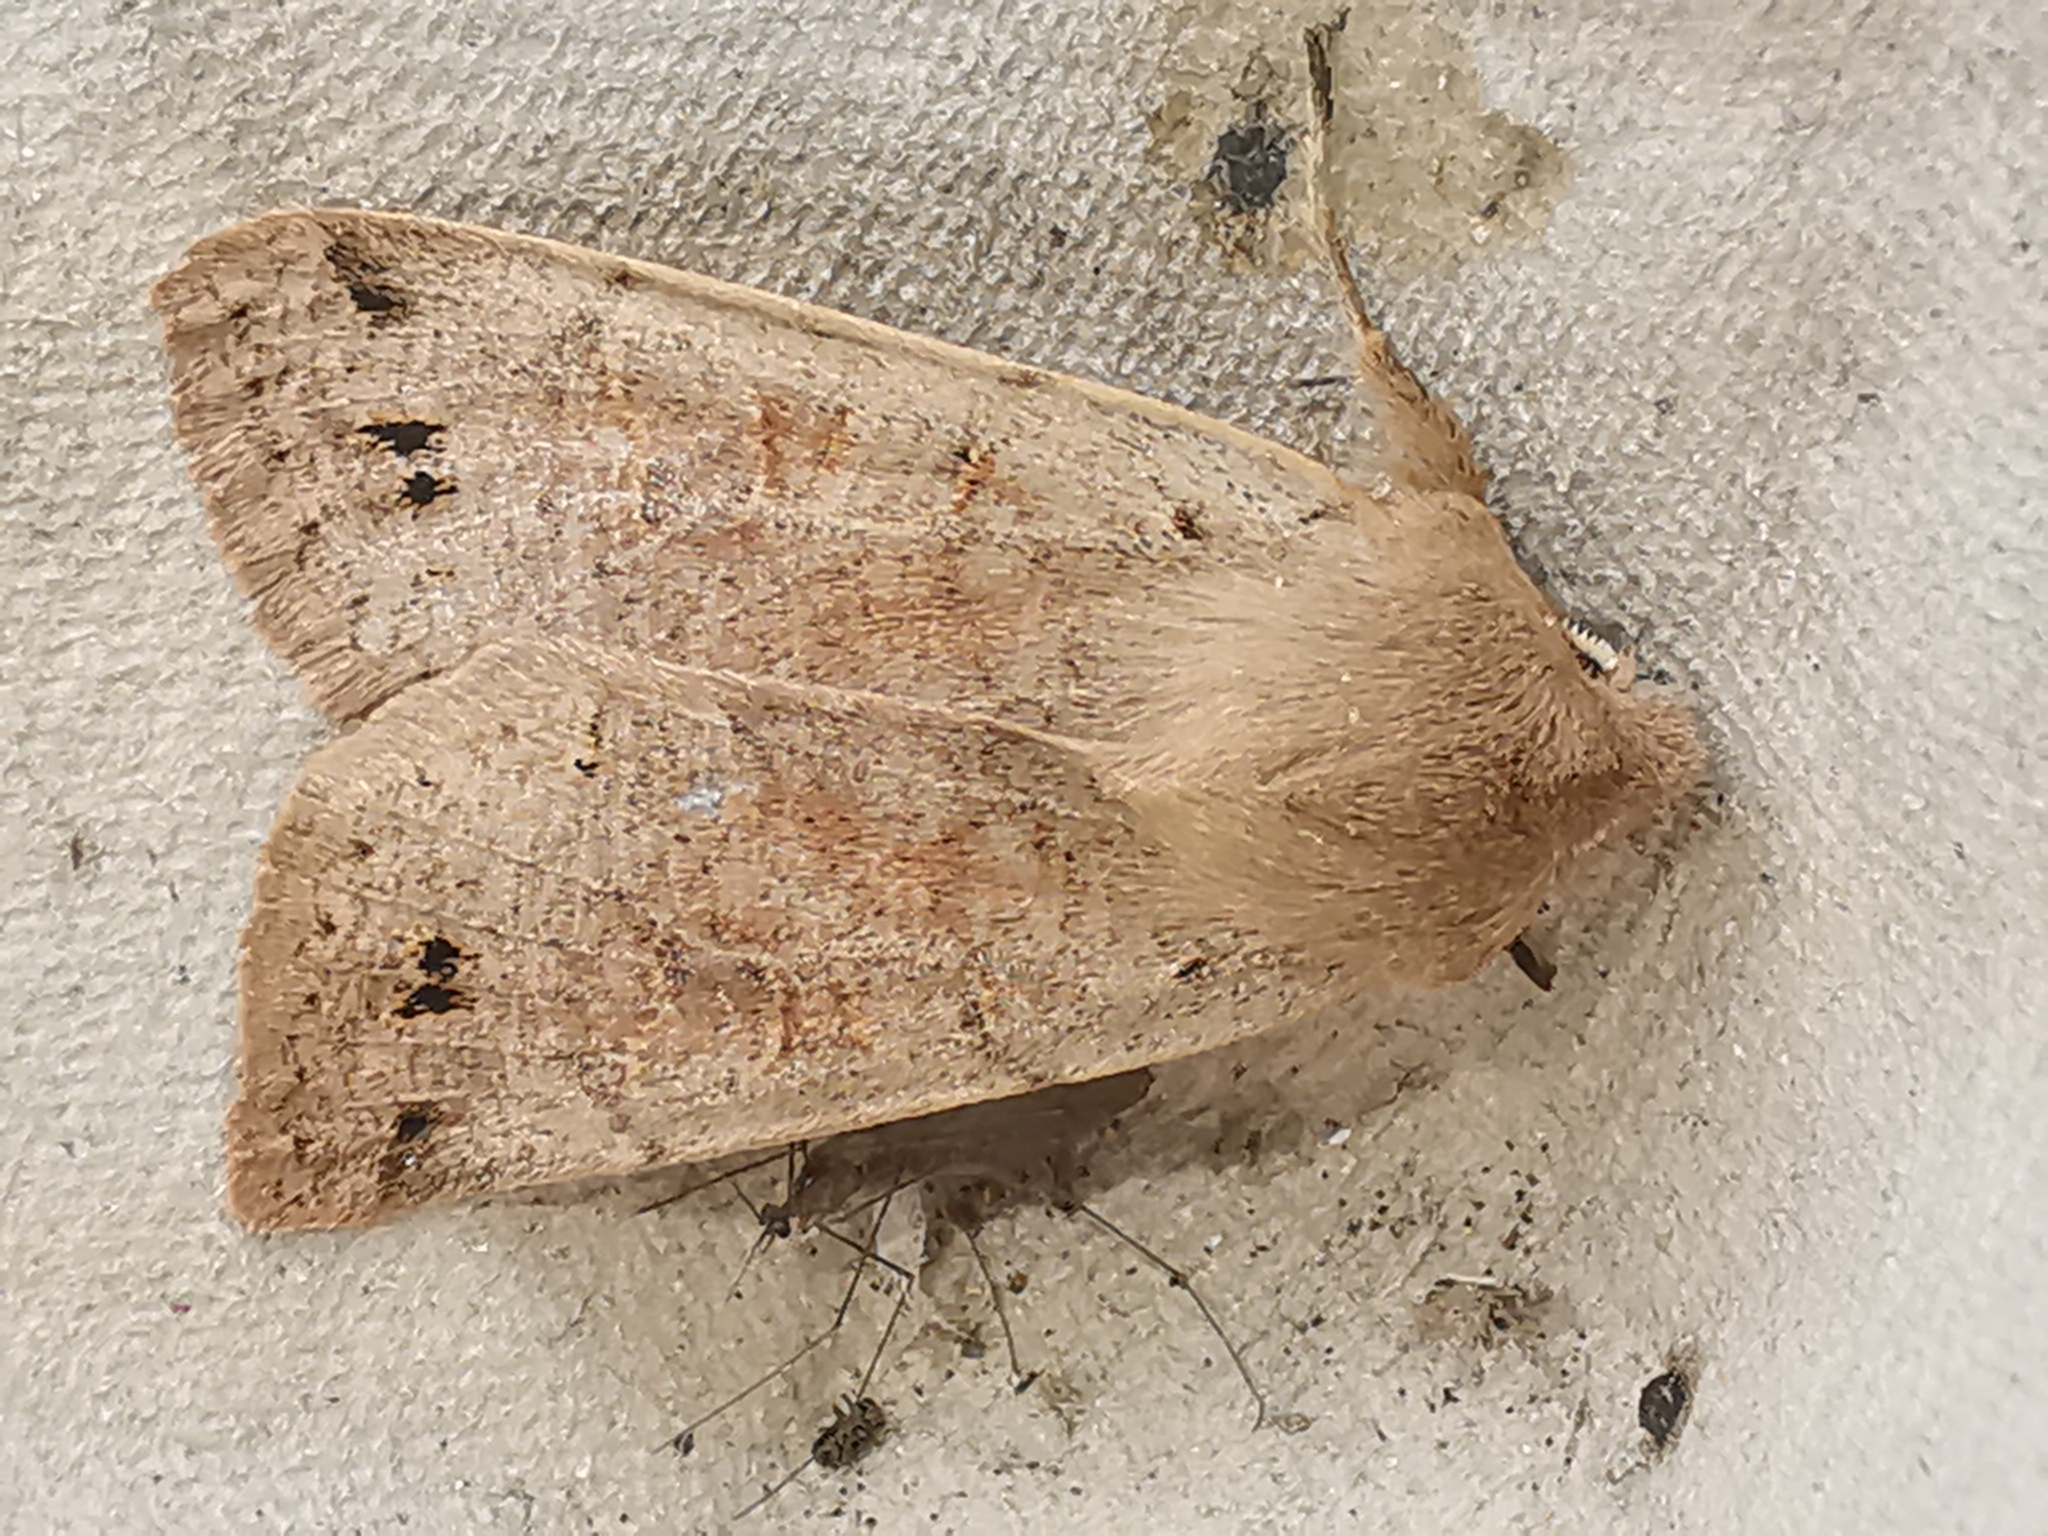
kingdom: Animalia
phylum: Arthropoda
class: Insecta
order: Lepidoptera
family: Noctuidae
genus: Anorthoa
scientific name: Anorthoa munda
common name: Twin-spotted quaker
